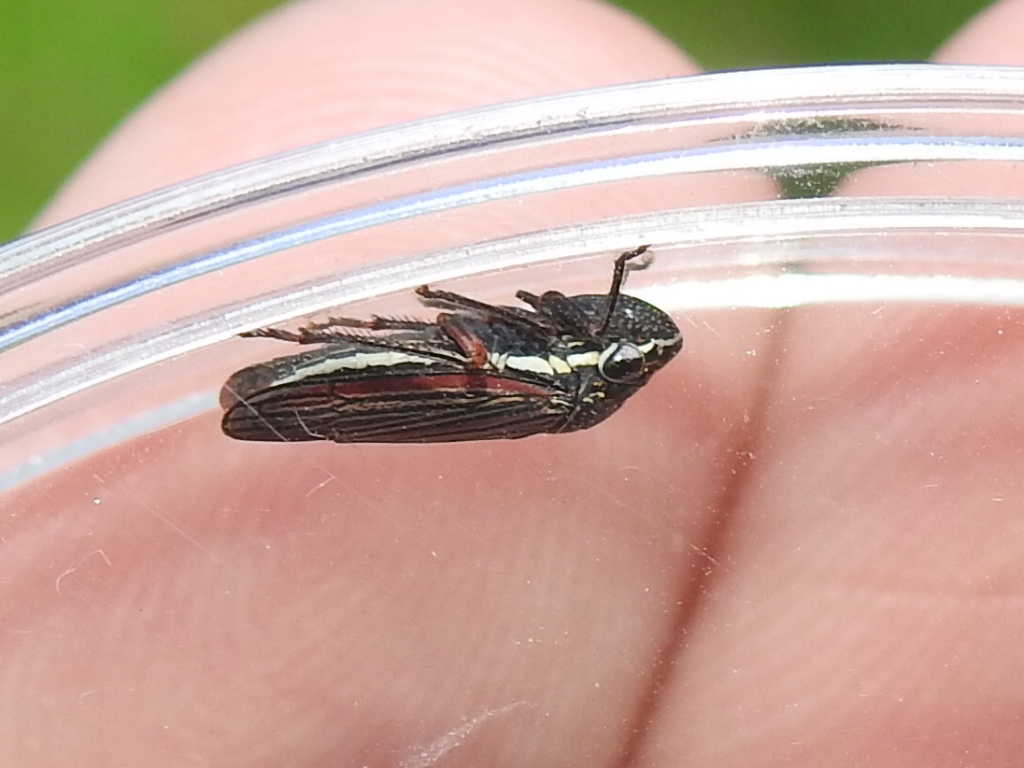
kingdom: Animalia
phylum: Arthropoda
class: Insecta
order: Hemiptera
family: Cicadellidae
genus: Cuerna
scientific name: Cuerna costalis
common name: Lateral-lined sharpshooter
